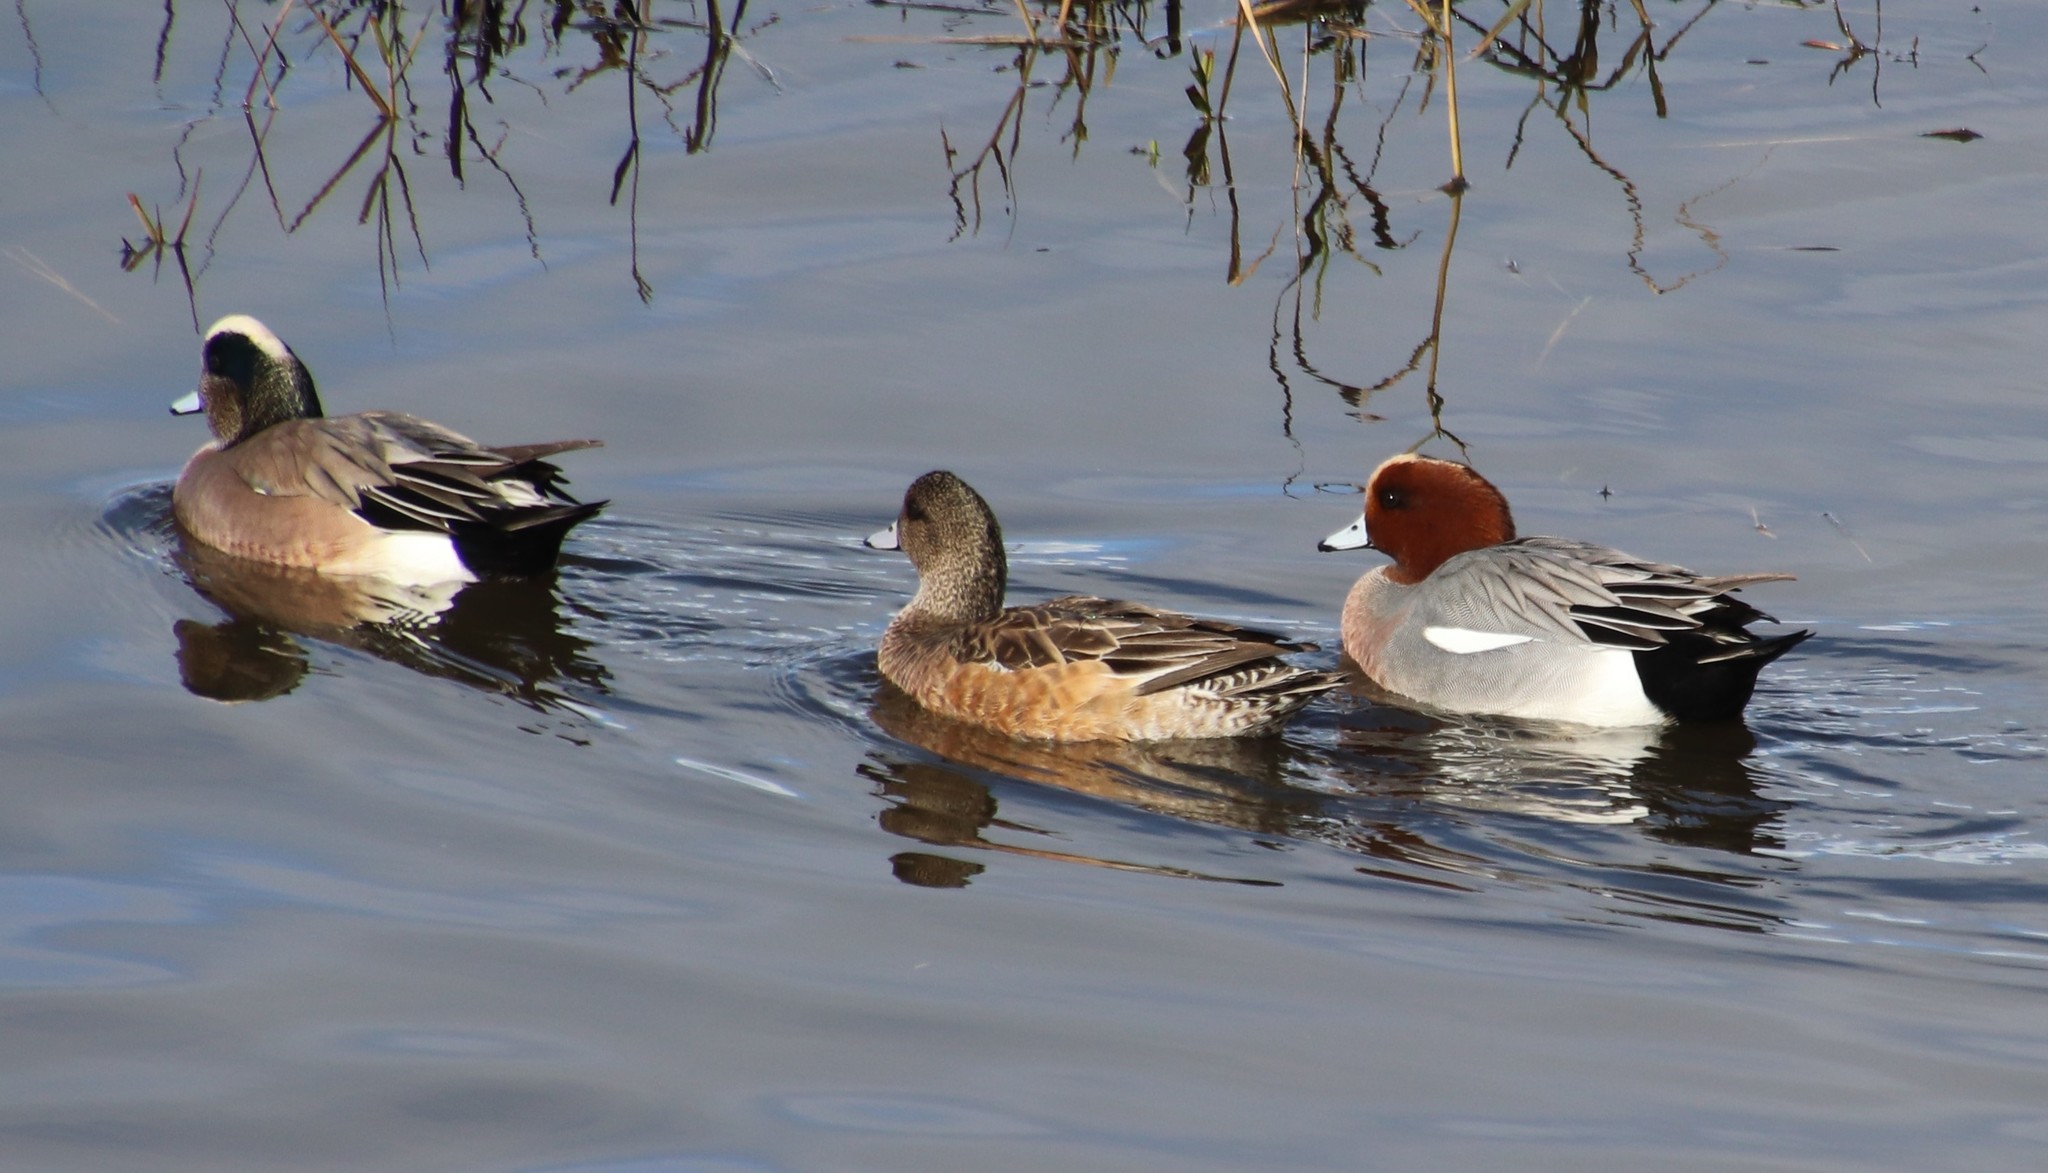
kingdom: Animalia
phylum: Chordata
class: Aves
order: Anseriformes
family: Anatidae
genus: Mareca
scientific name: Mareca penelope
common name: Eurasian wigeon
